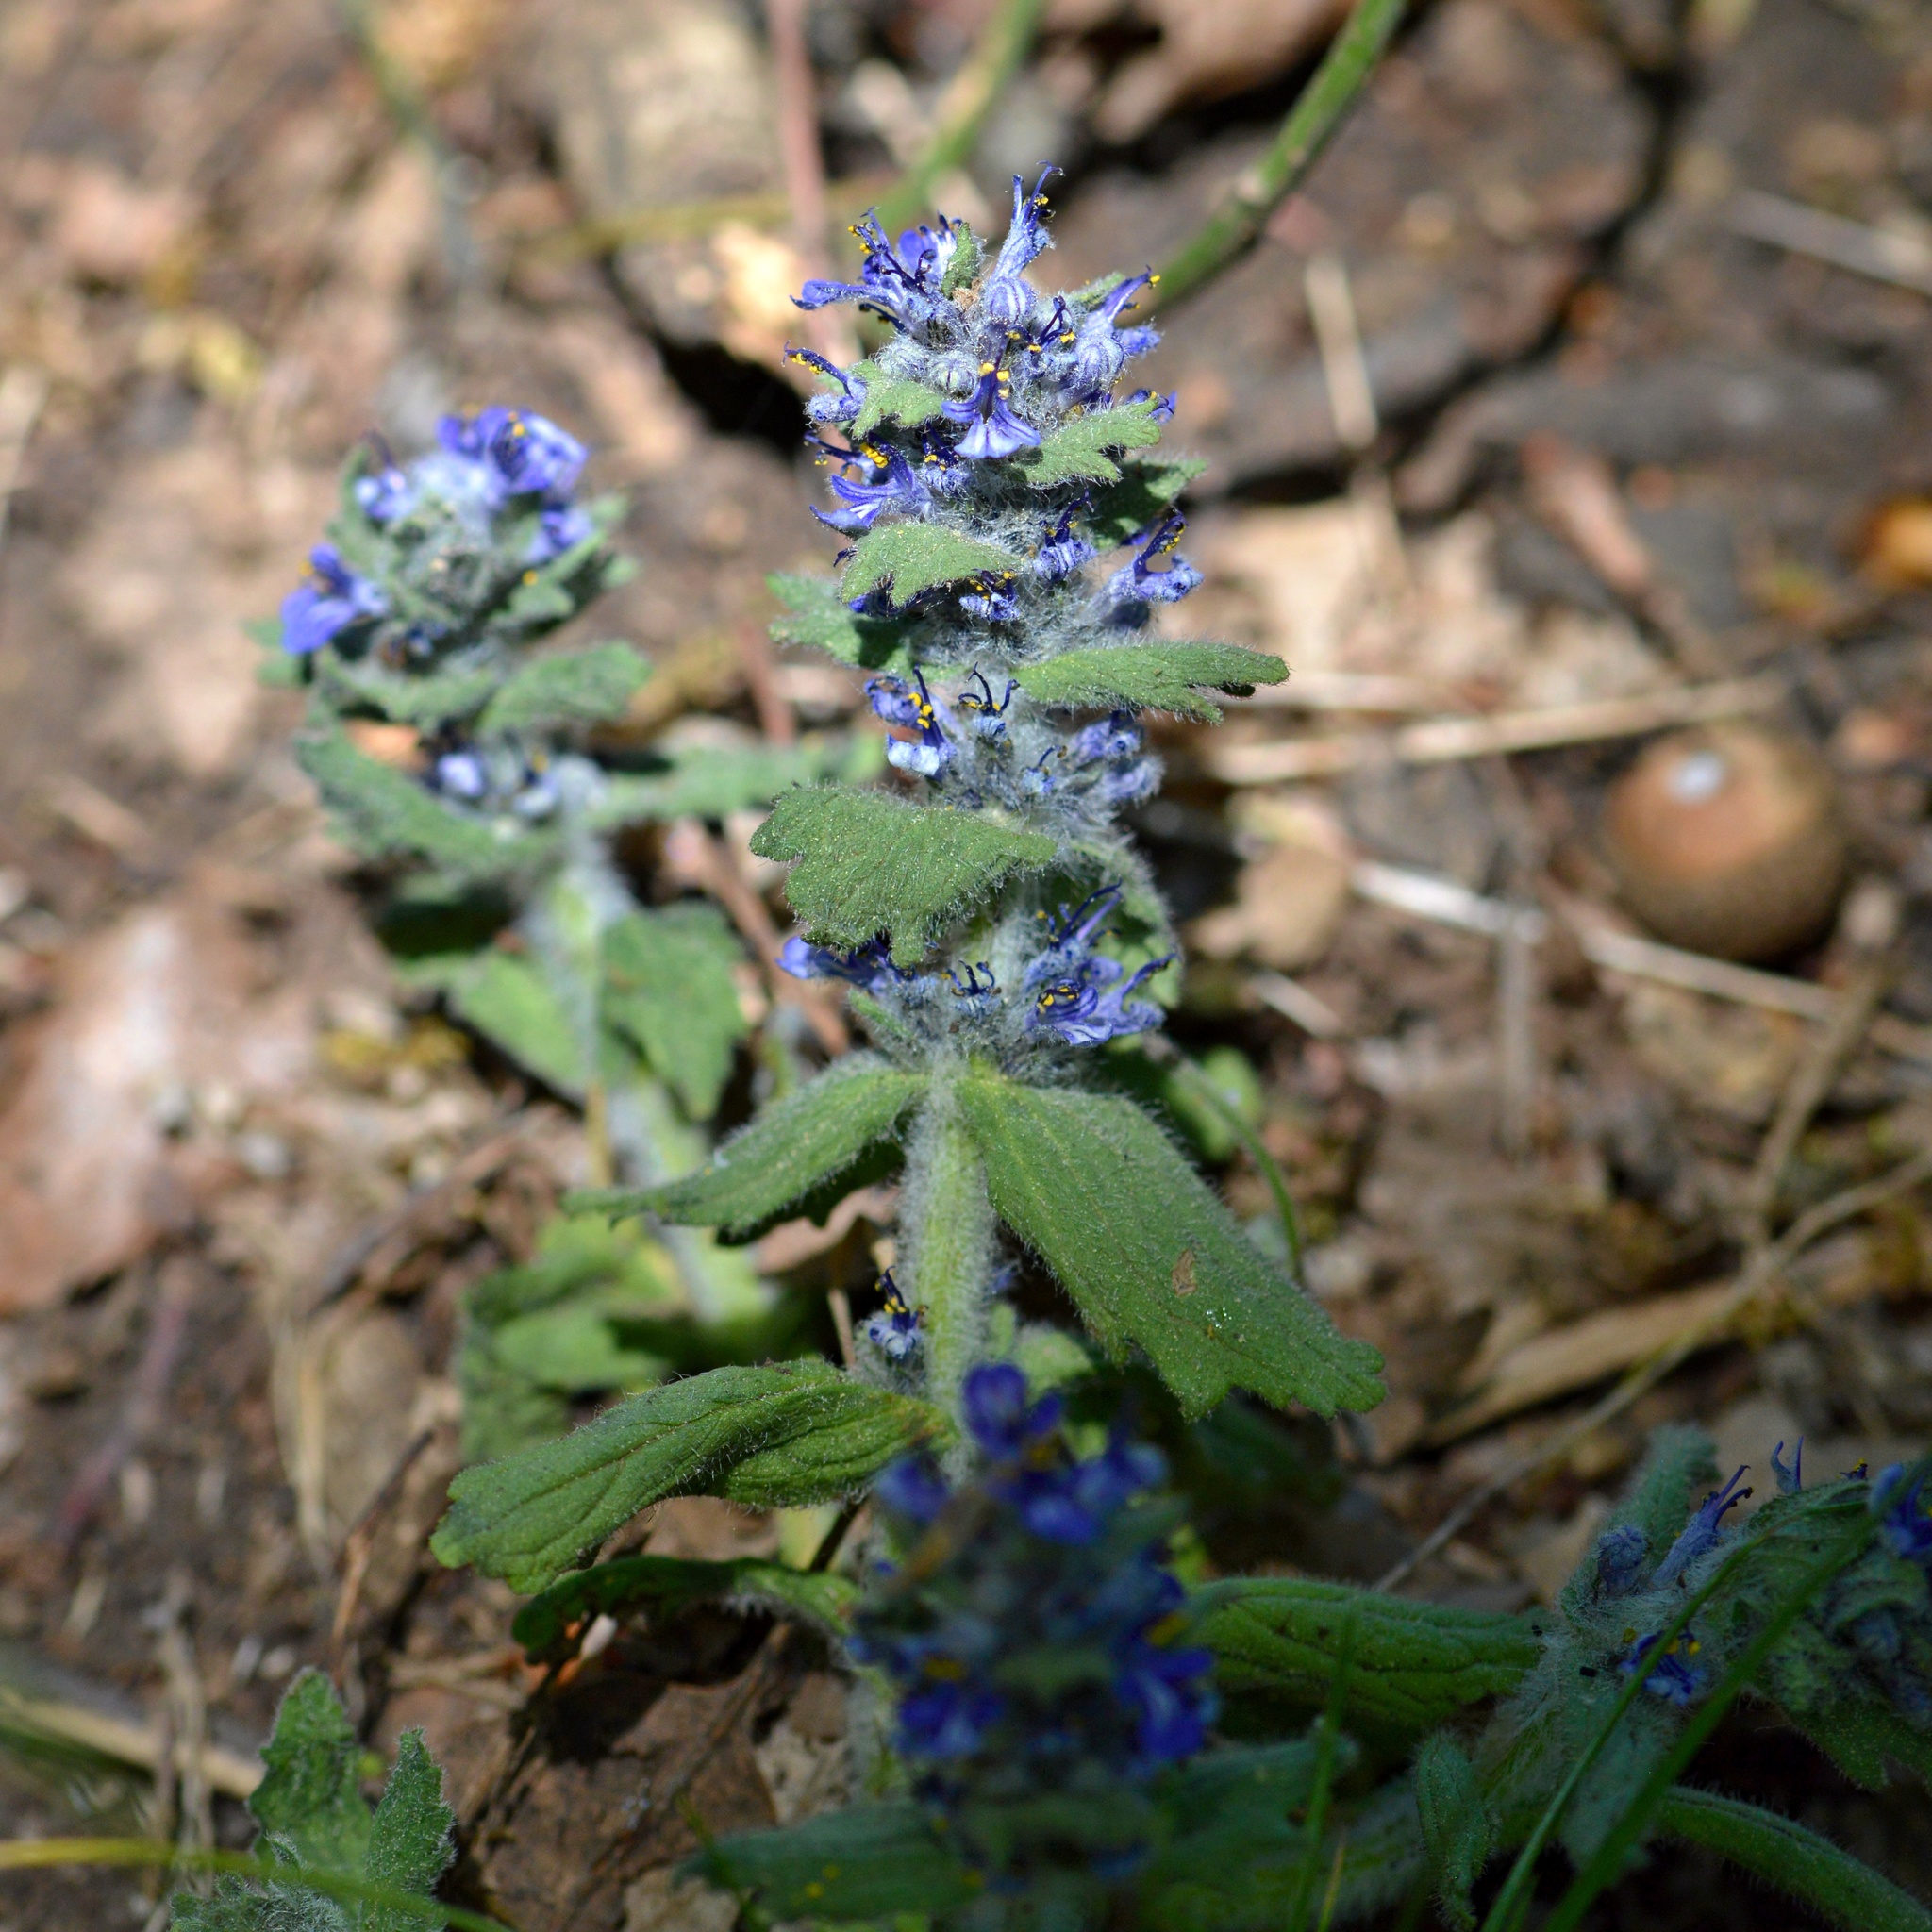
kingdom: Plantae
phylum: Tracheophyta
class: Magnoliopsida
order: Lamiales
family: Lamiaceae
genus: Ajuga
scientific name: Ajuga genevensis
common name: Blue bugle
